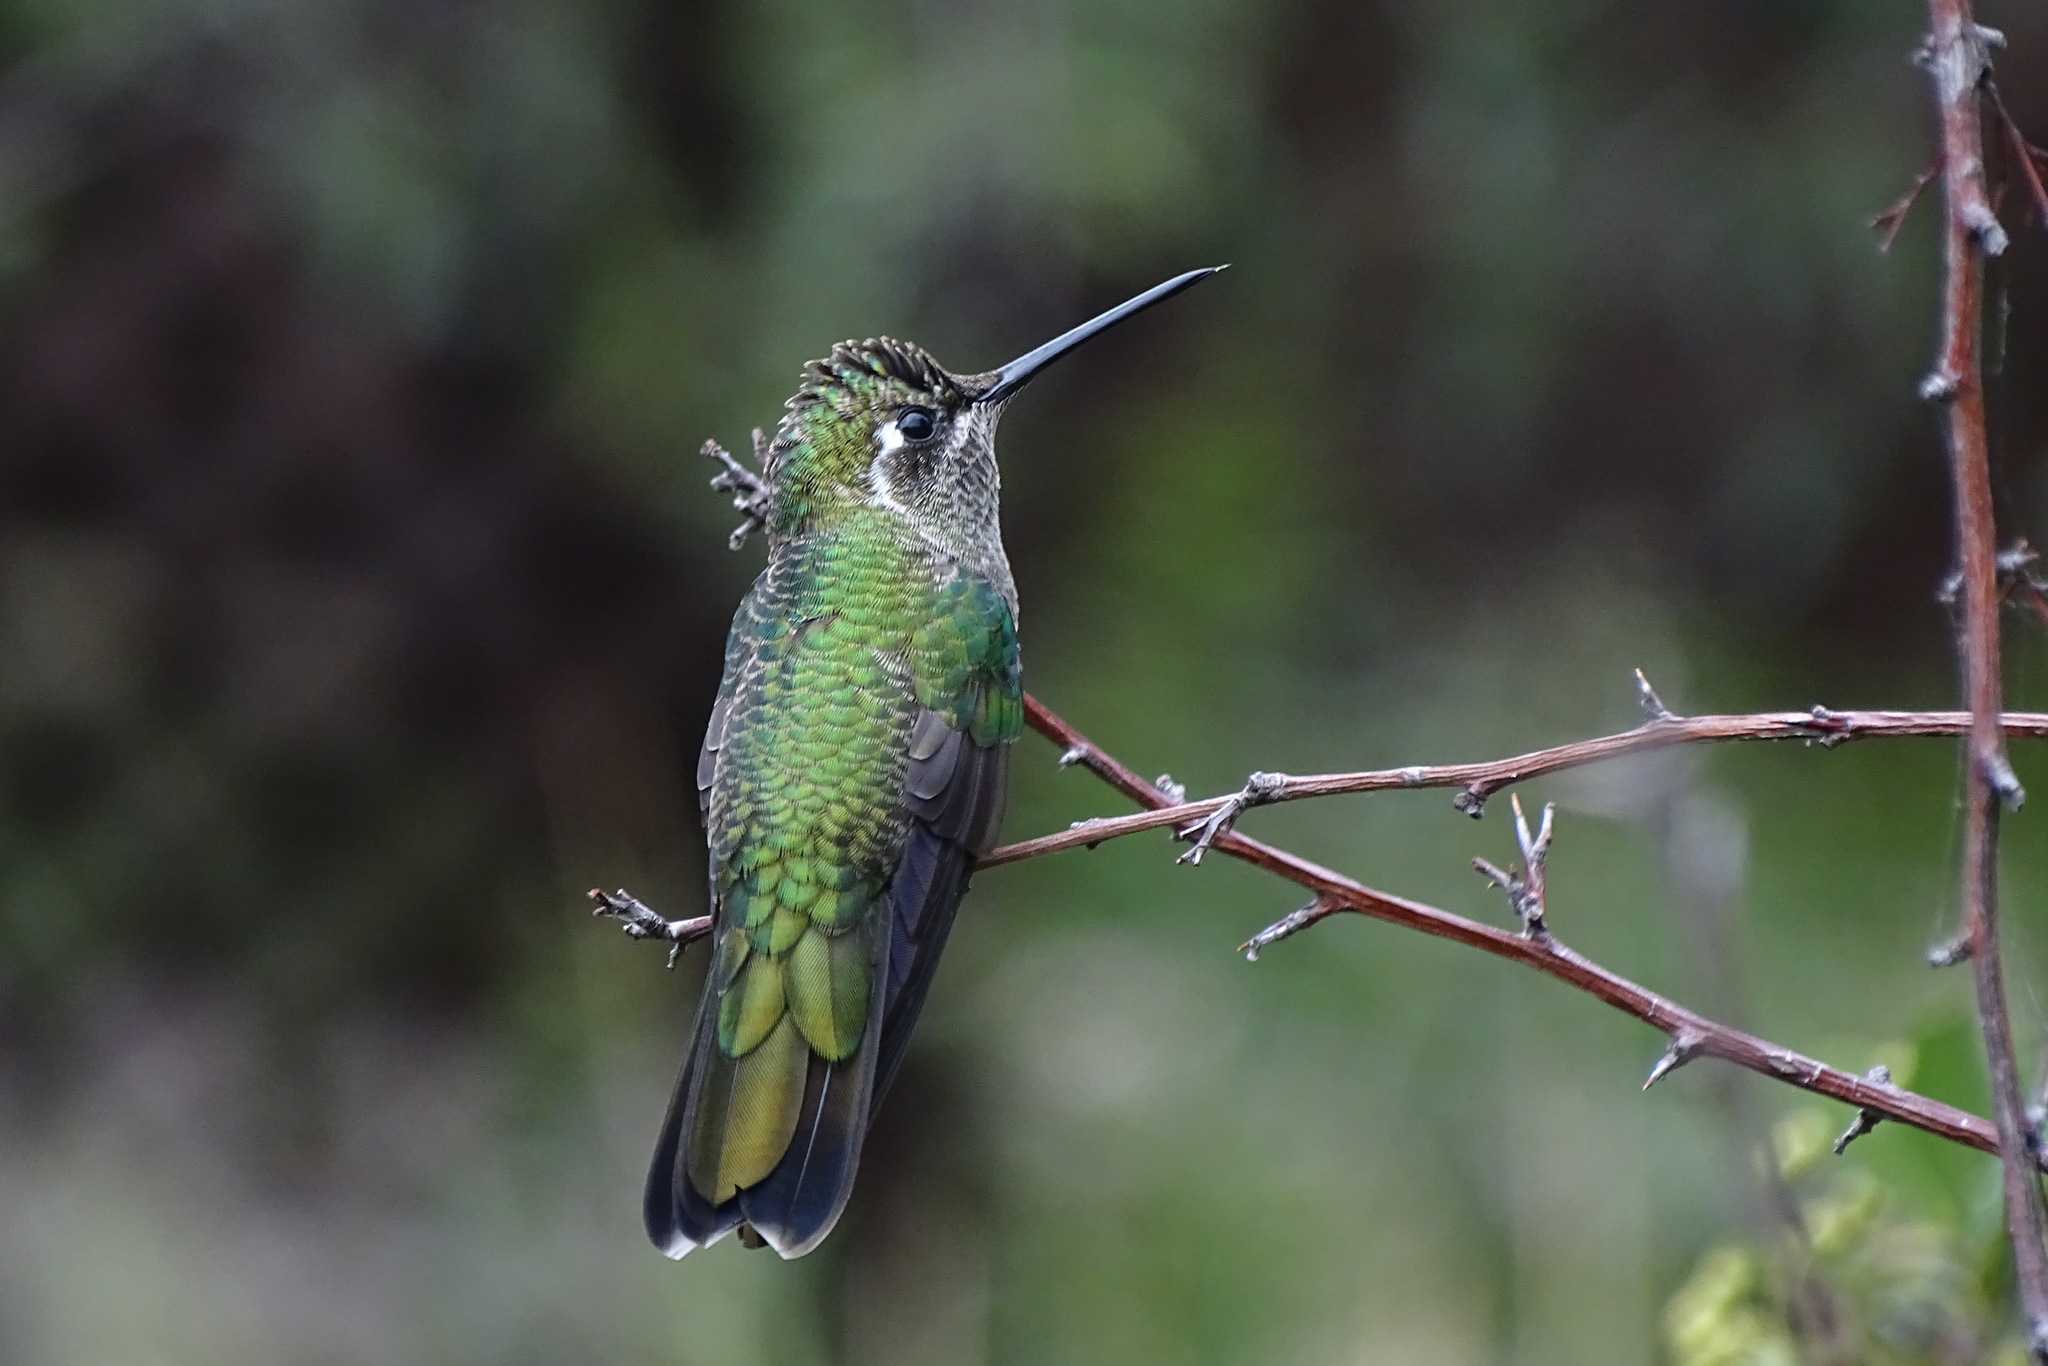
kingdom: Animalia
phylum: Chordata
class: Aves
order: Apodiformes
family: Trochilidae
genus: Eugenes
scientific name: Eugenes fulgens
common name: Magnificent hummingbird
